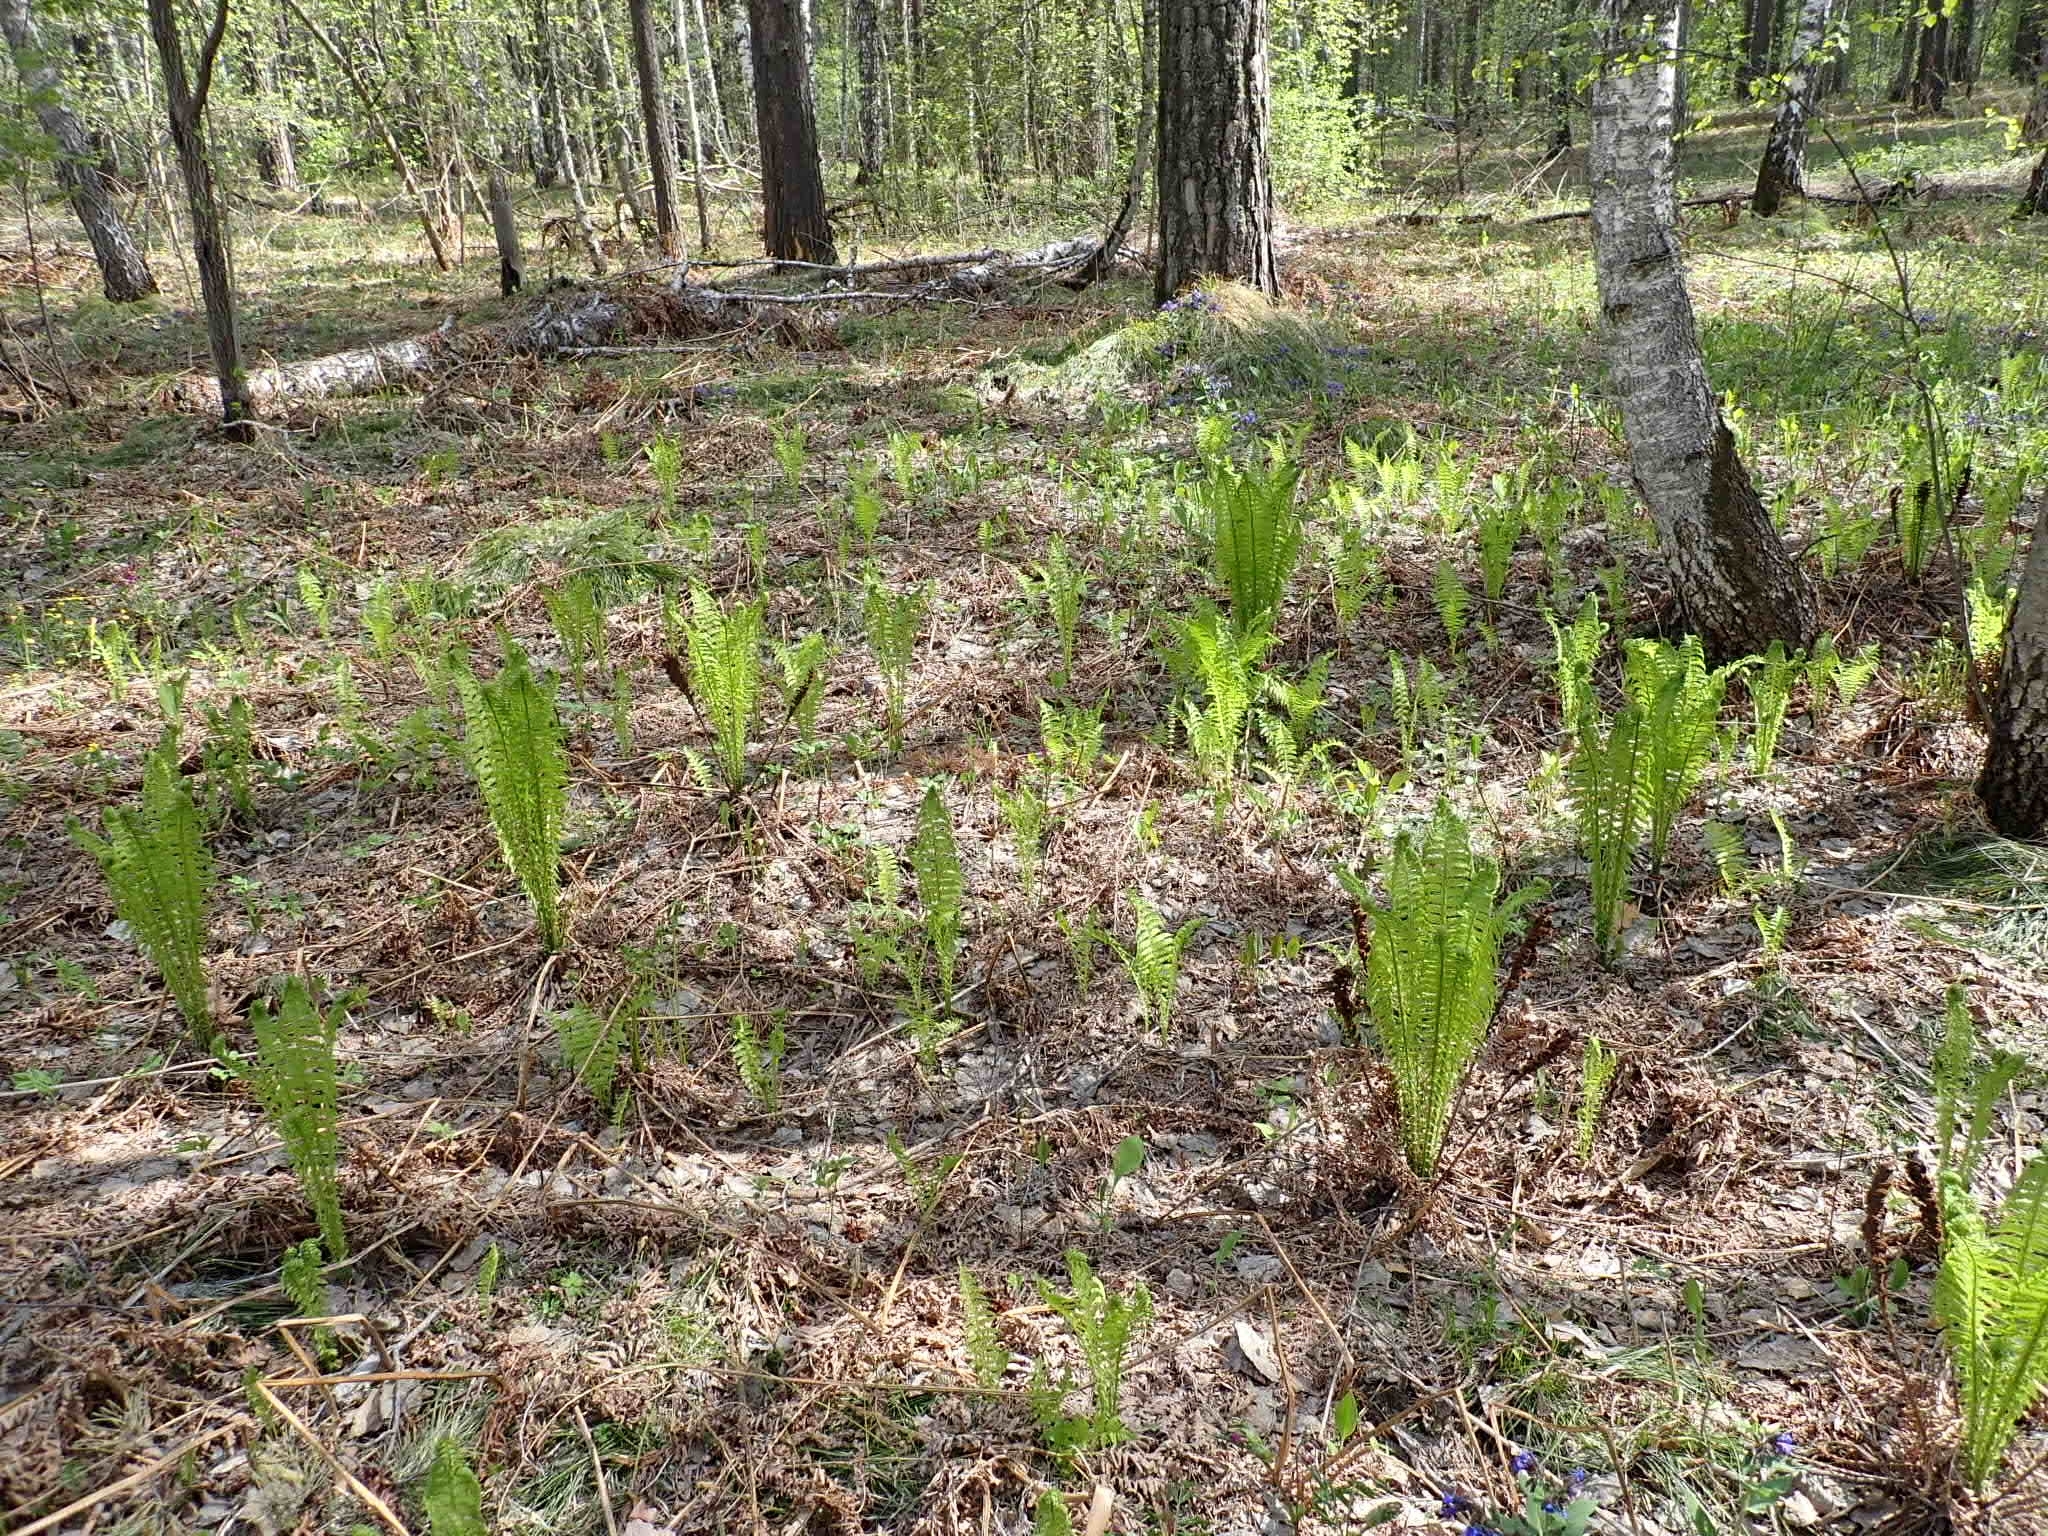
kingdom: Plantae
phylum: Tracheophyta
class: Polypodiopsida
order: Polypodiales
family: Onocleaceae
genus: Matteuccia
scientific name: Matteuccia struthiopteris
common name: Ostrich fern
